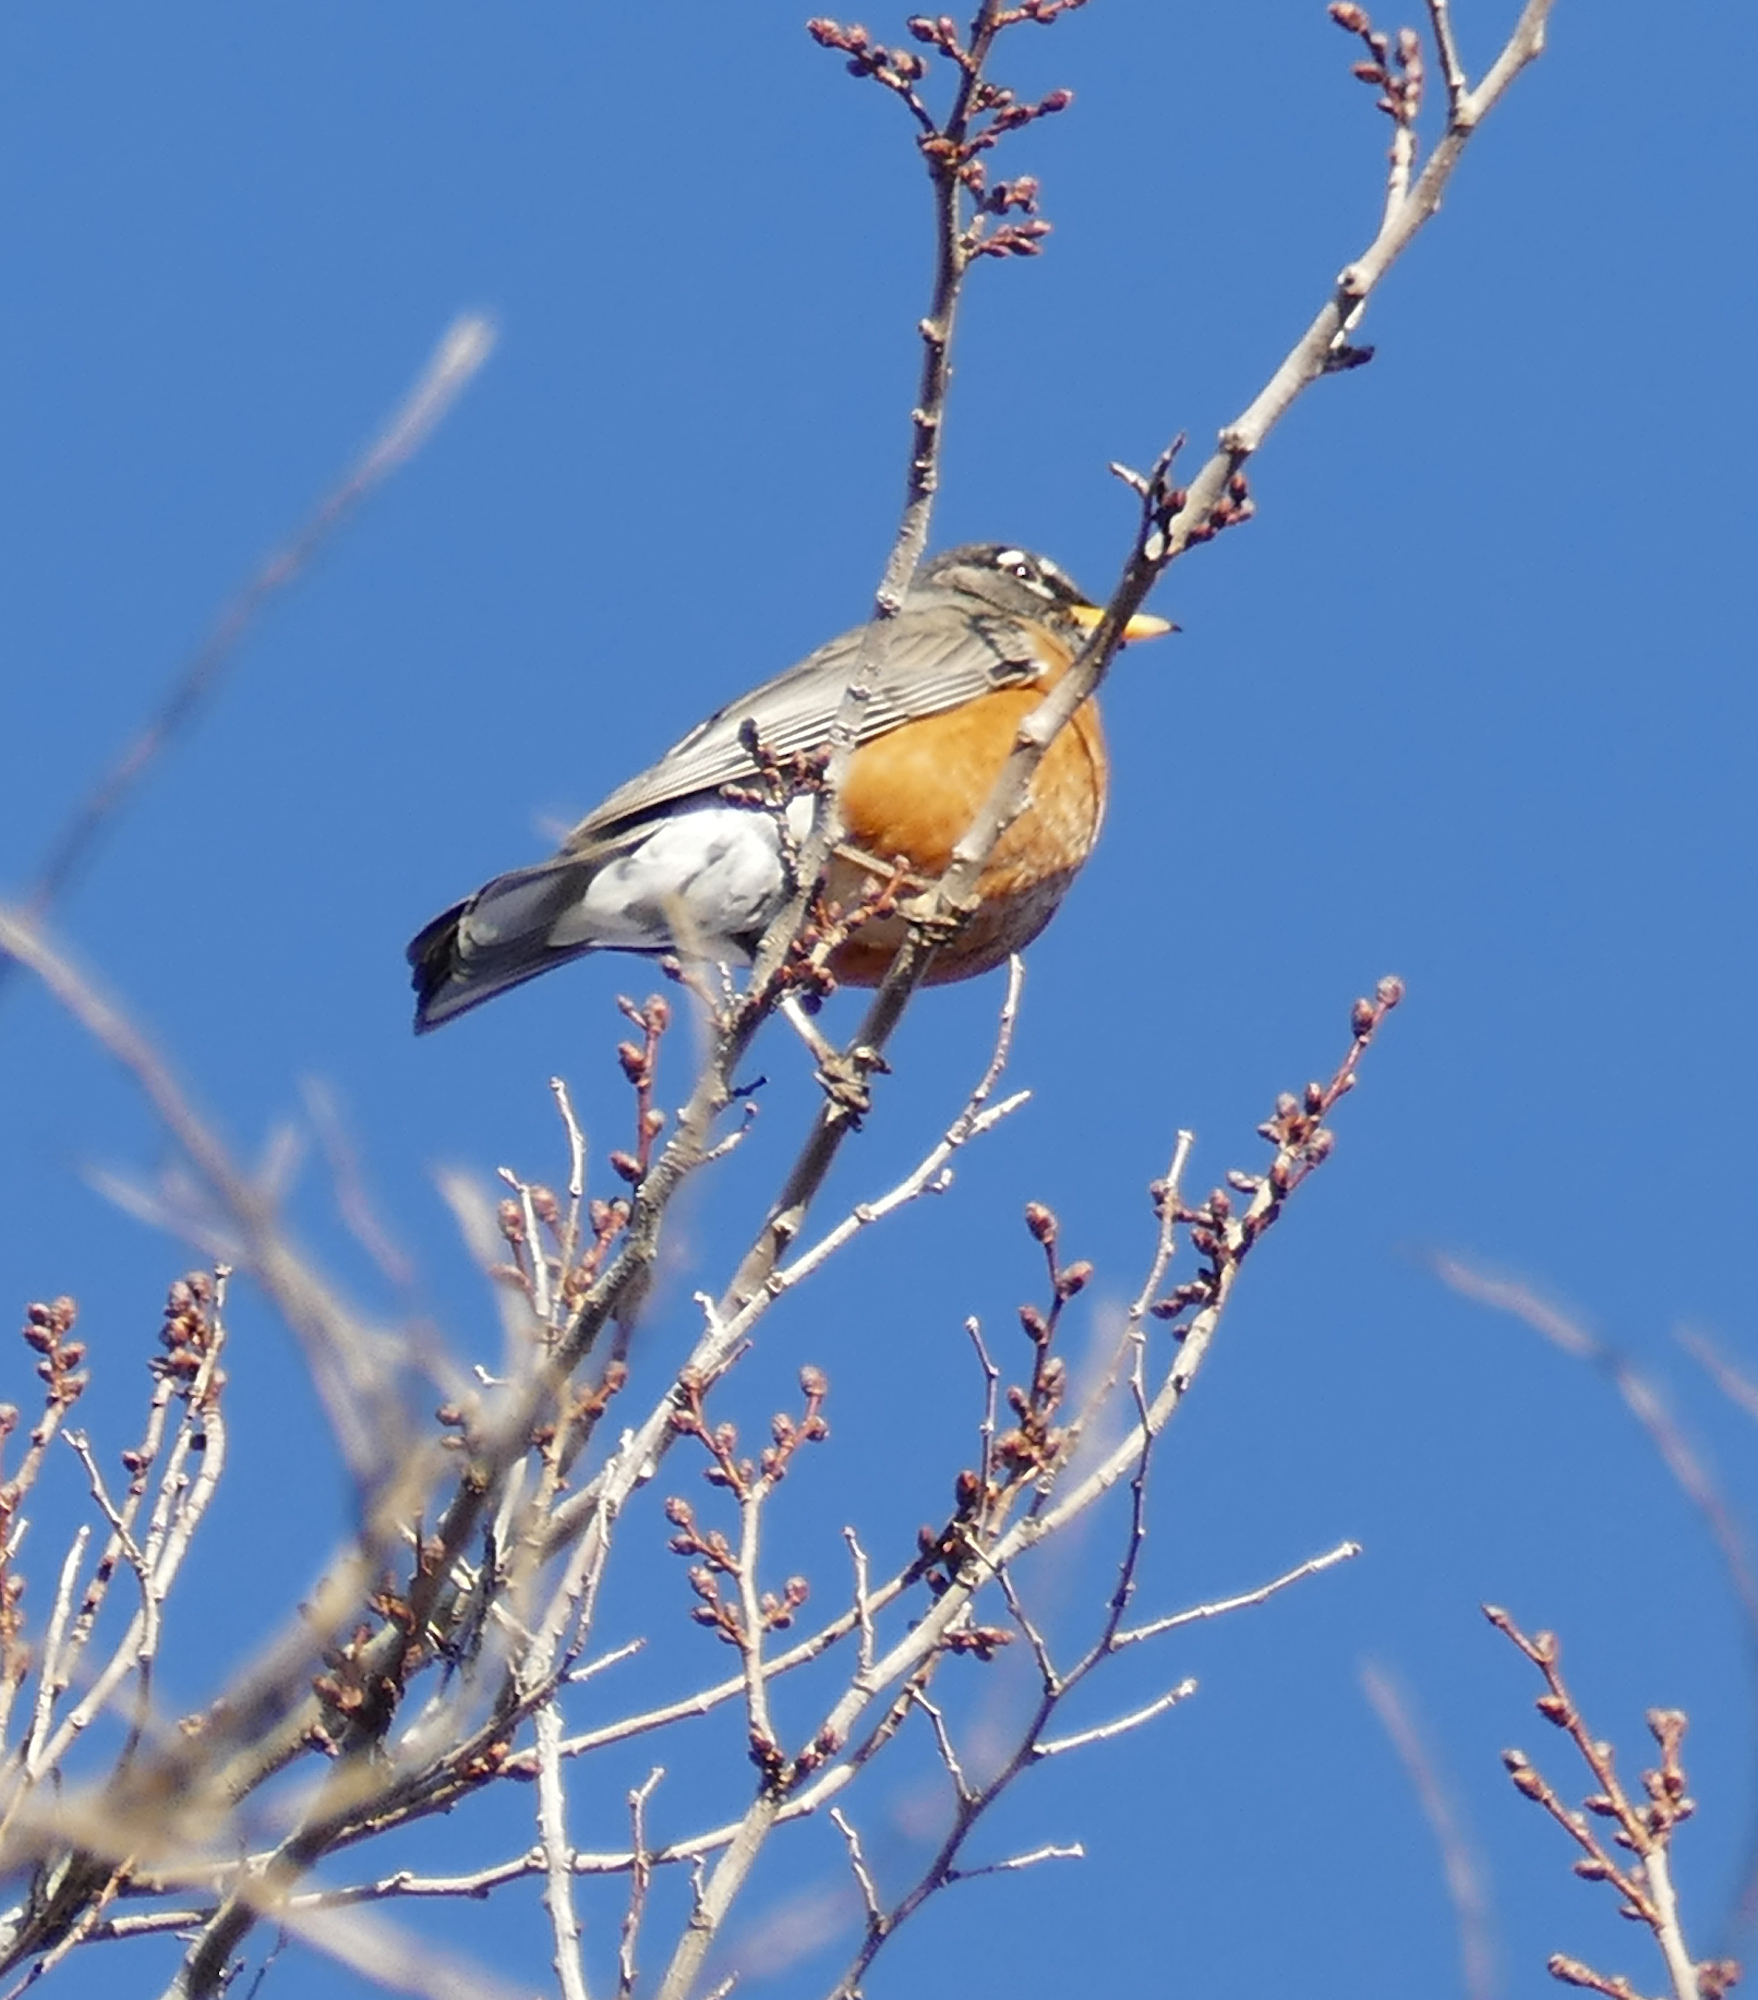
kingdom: Animalia
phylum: Chordata
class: Aves
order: Passeriformes
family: Turdidae
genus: Turdus
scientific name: Turdus migratorius
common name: American robin
